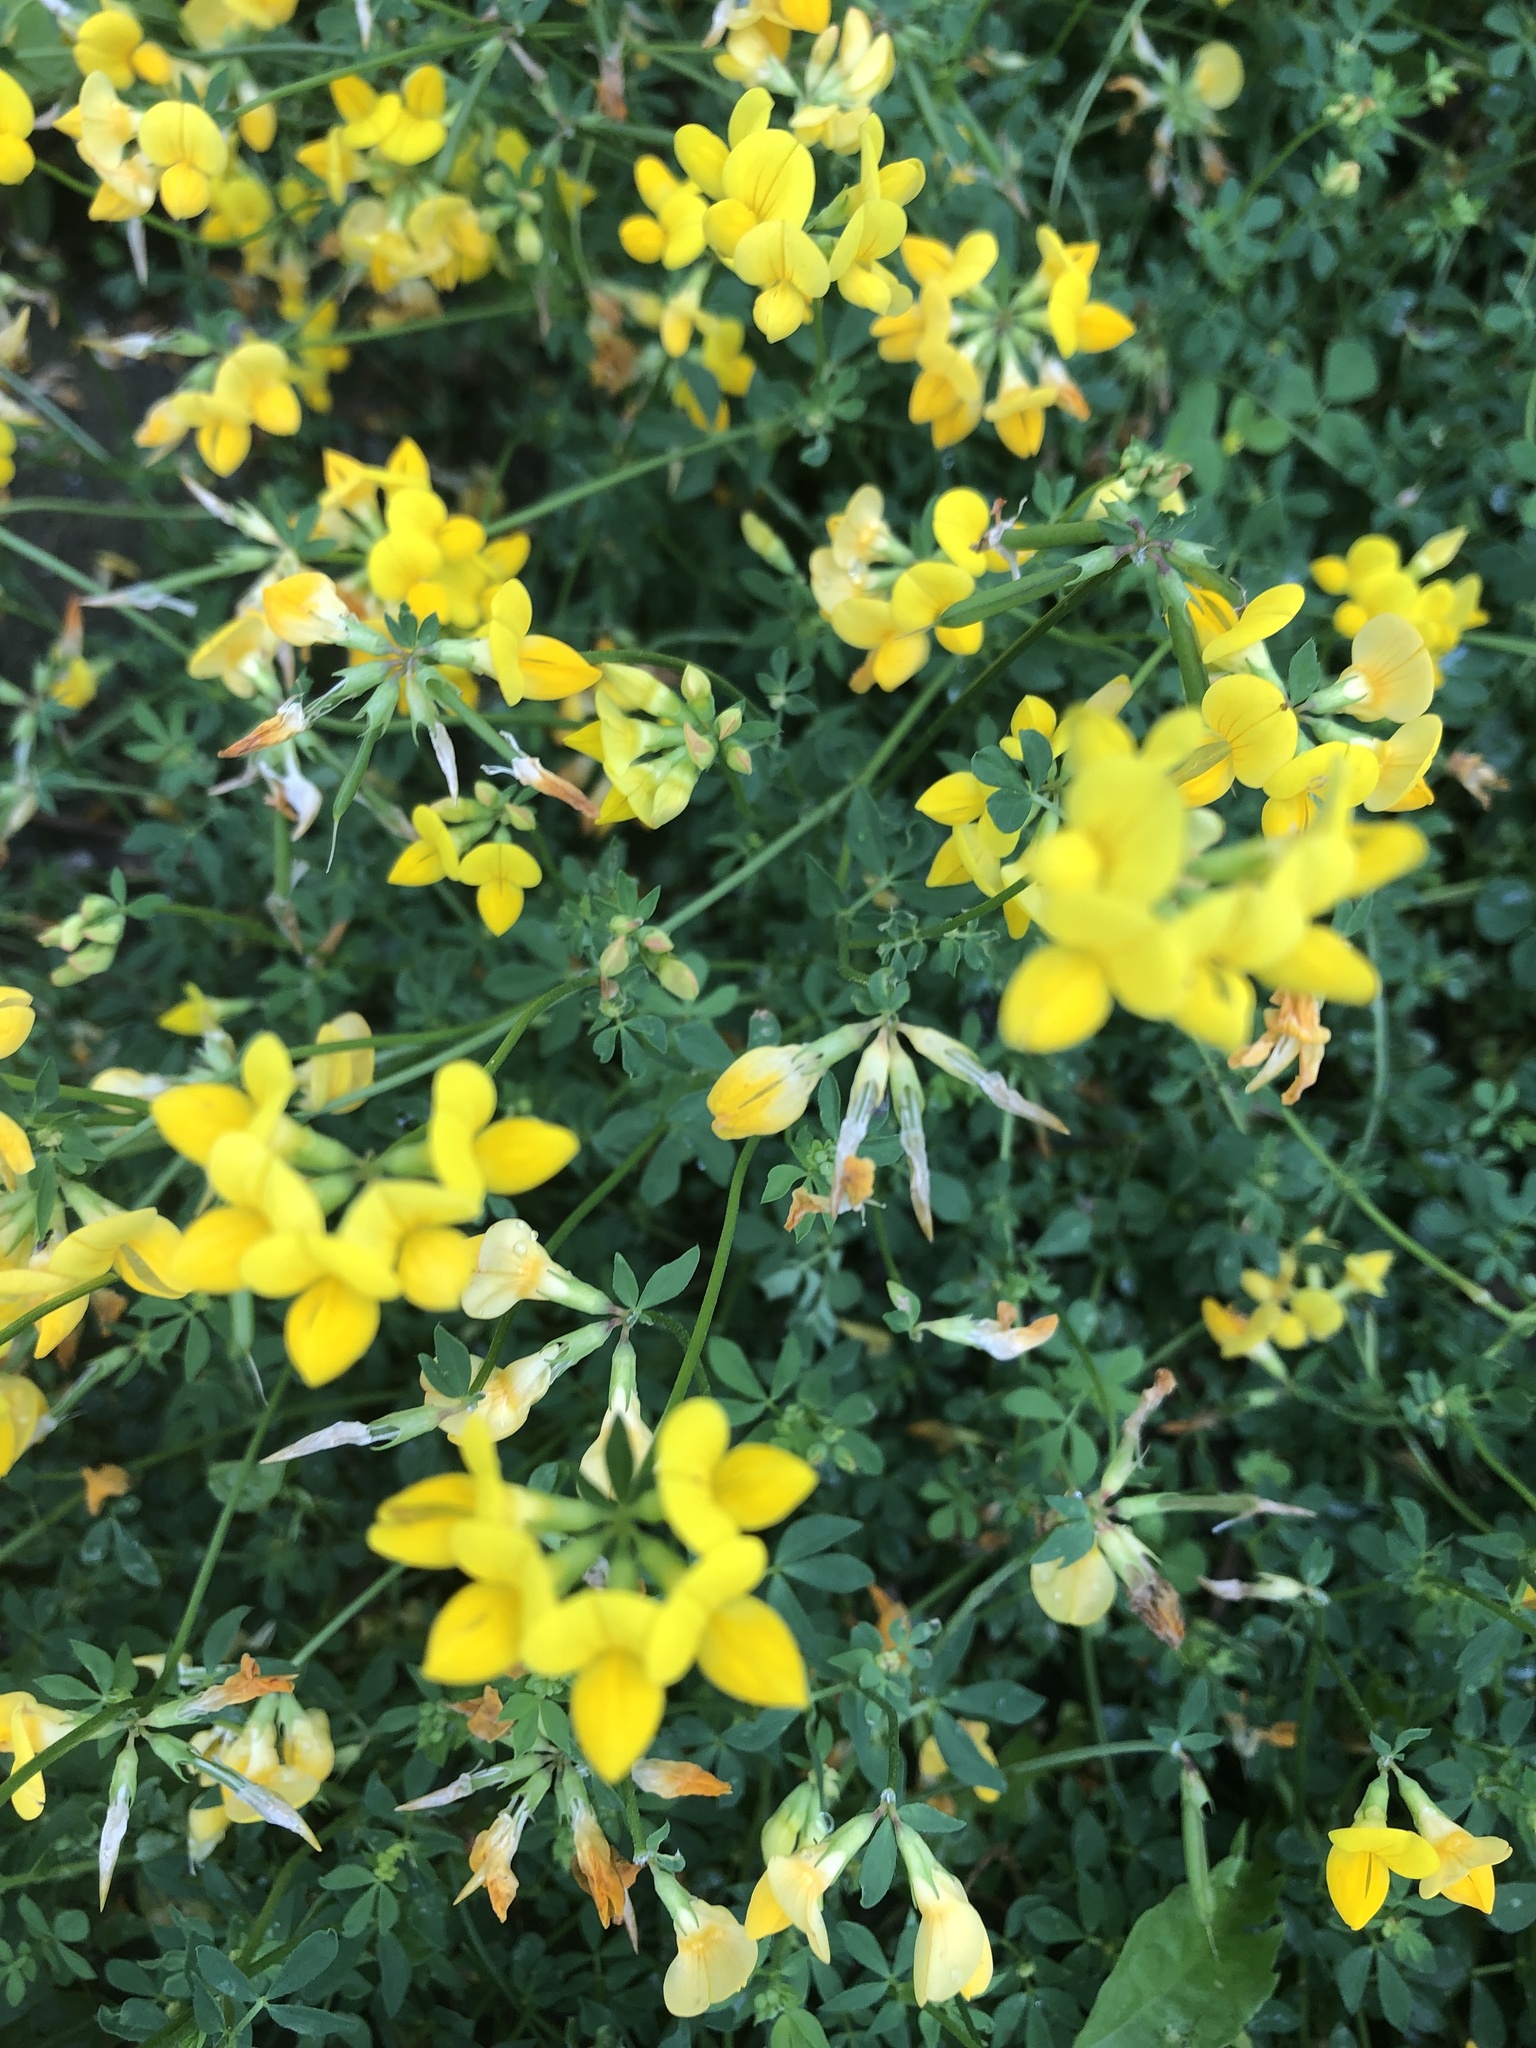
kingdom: Plantae
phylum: Tracheophyta
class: Magnoliopsida
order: Fabales
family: Fabaceae
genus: Lotus
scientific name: Lotus corniculatus
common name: Common bird's-foot-trefoil
